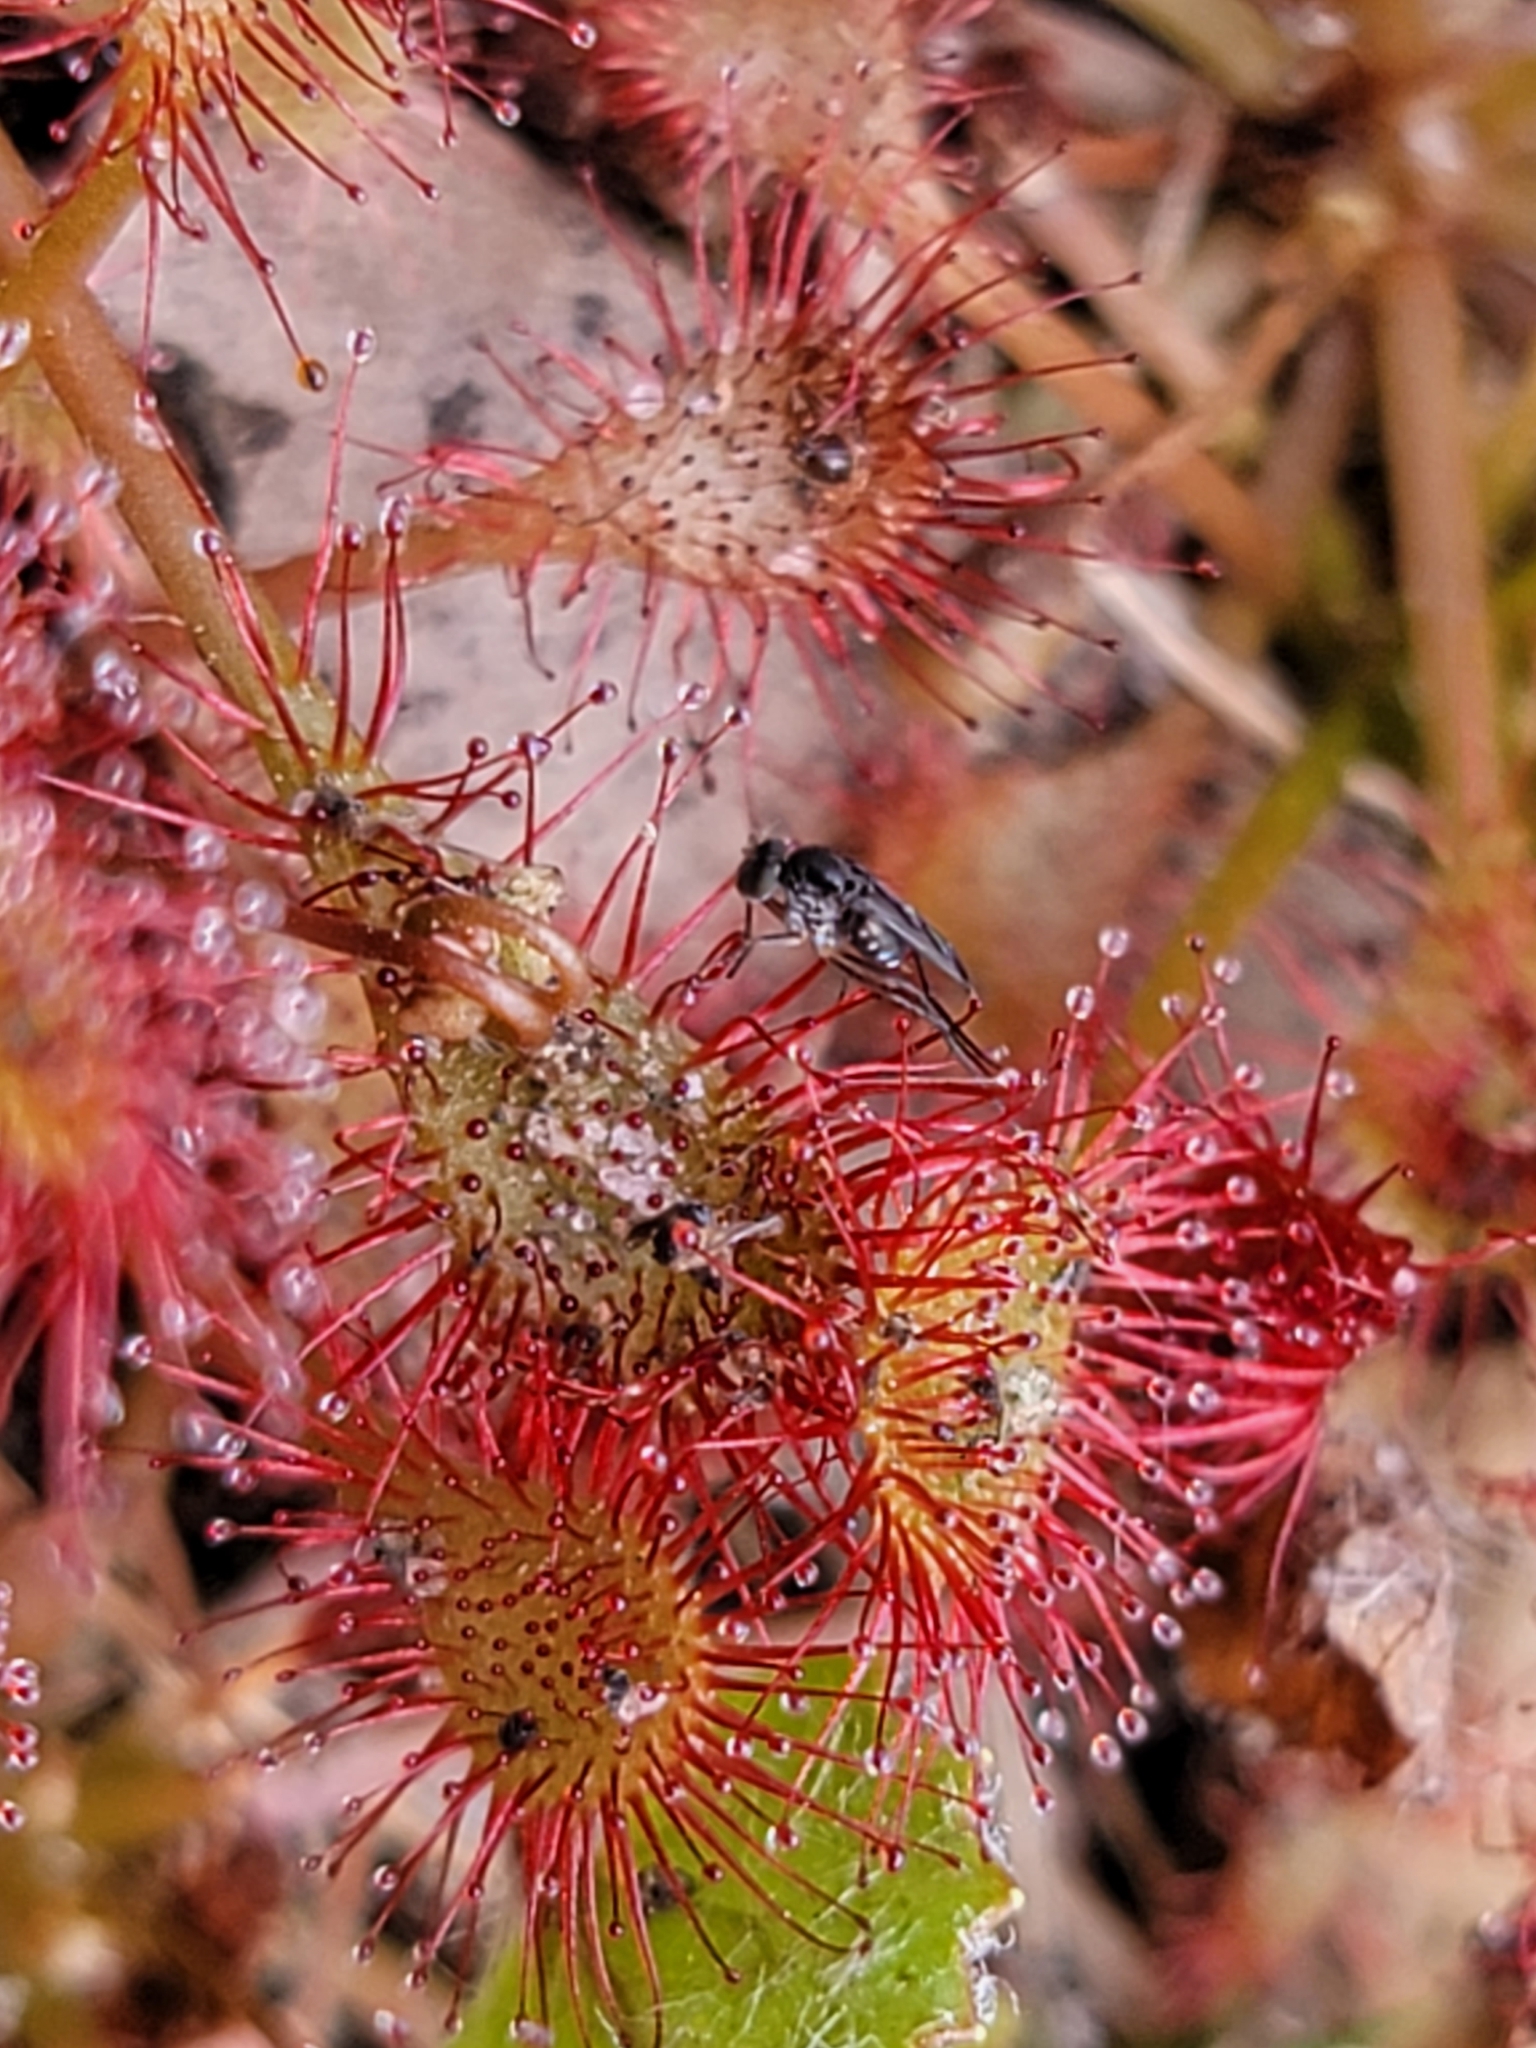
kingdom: Plantae
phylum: Tracheophyta
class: Magnoliopsida
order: Caryophyllales
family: Droseraceae
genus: Drosera
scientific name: Drosera capillaris
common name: Pink sundew
